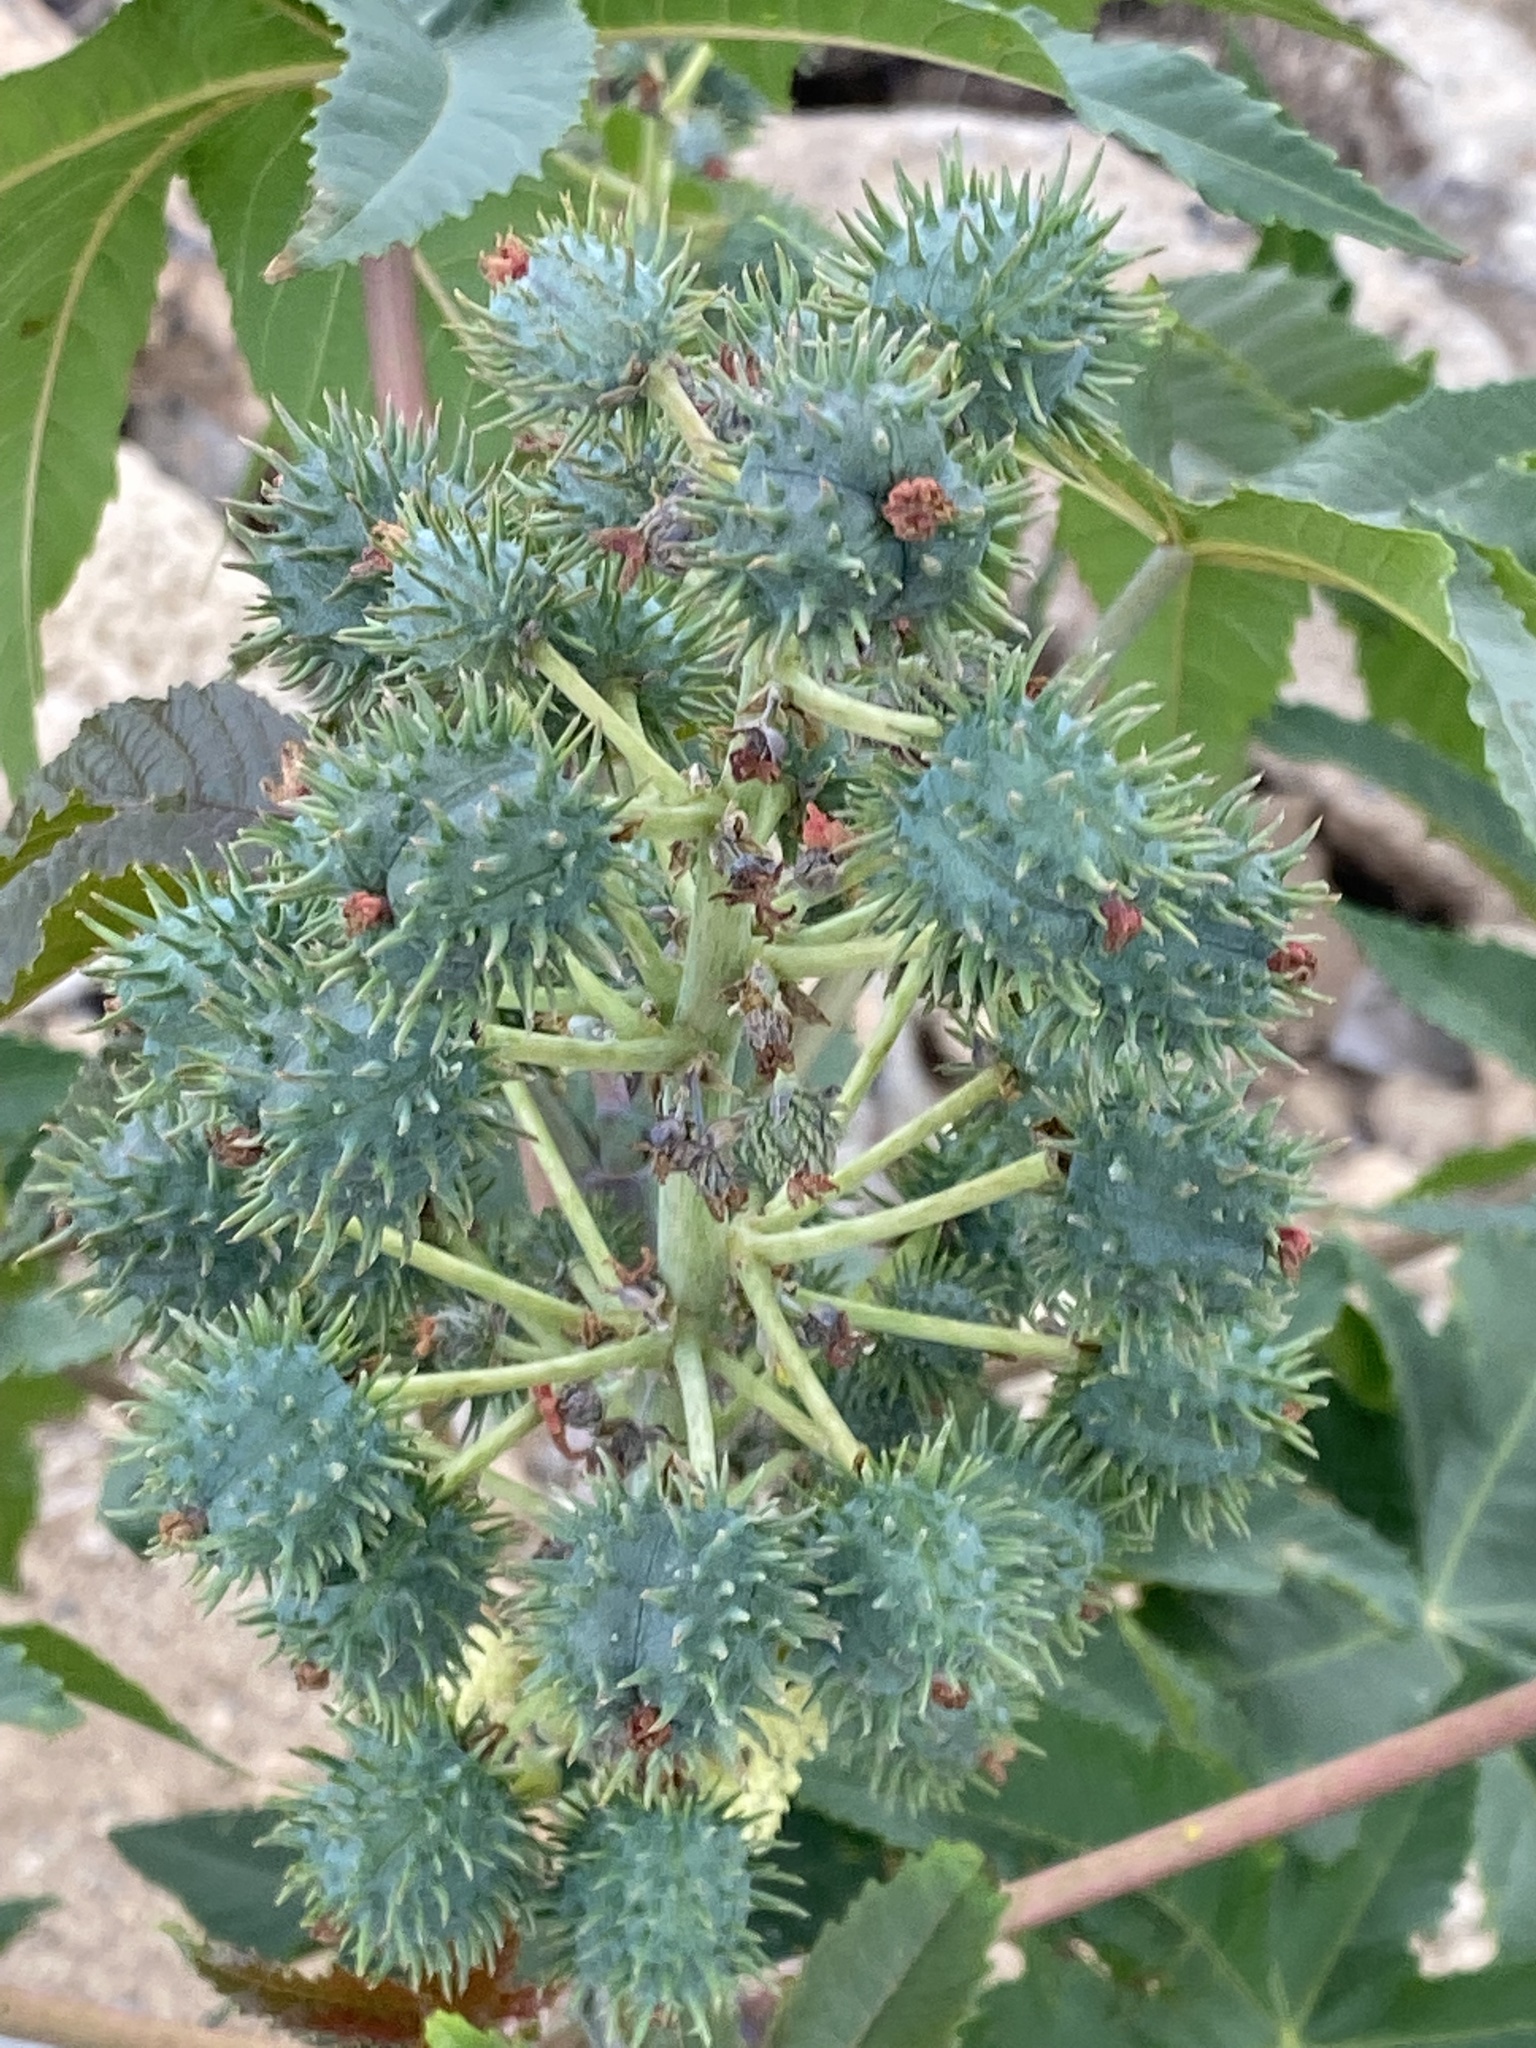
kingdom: Plantae
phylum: Tracheophyta
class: Magnoliopsida
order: Malpighiales
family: Euphorbiaceae
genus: Ricinus
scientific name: Ricinus communis
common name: Castor-oil-plant
